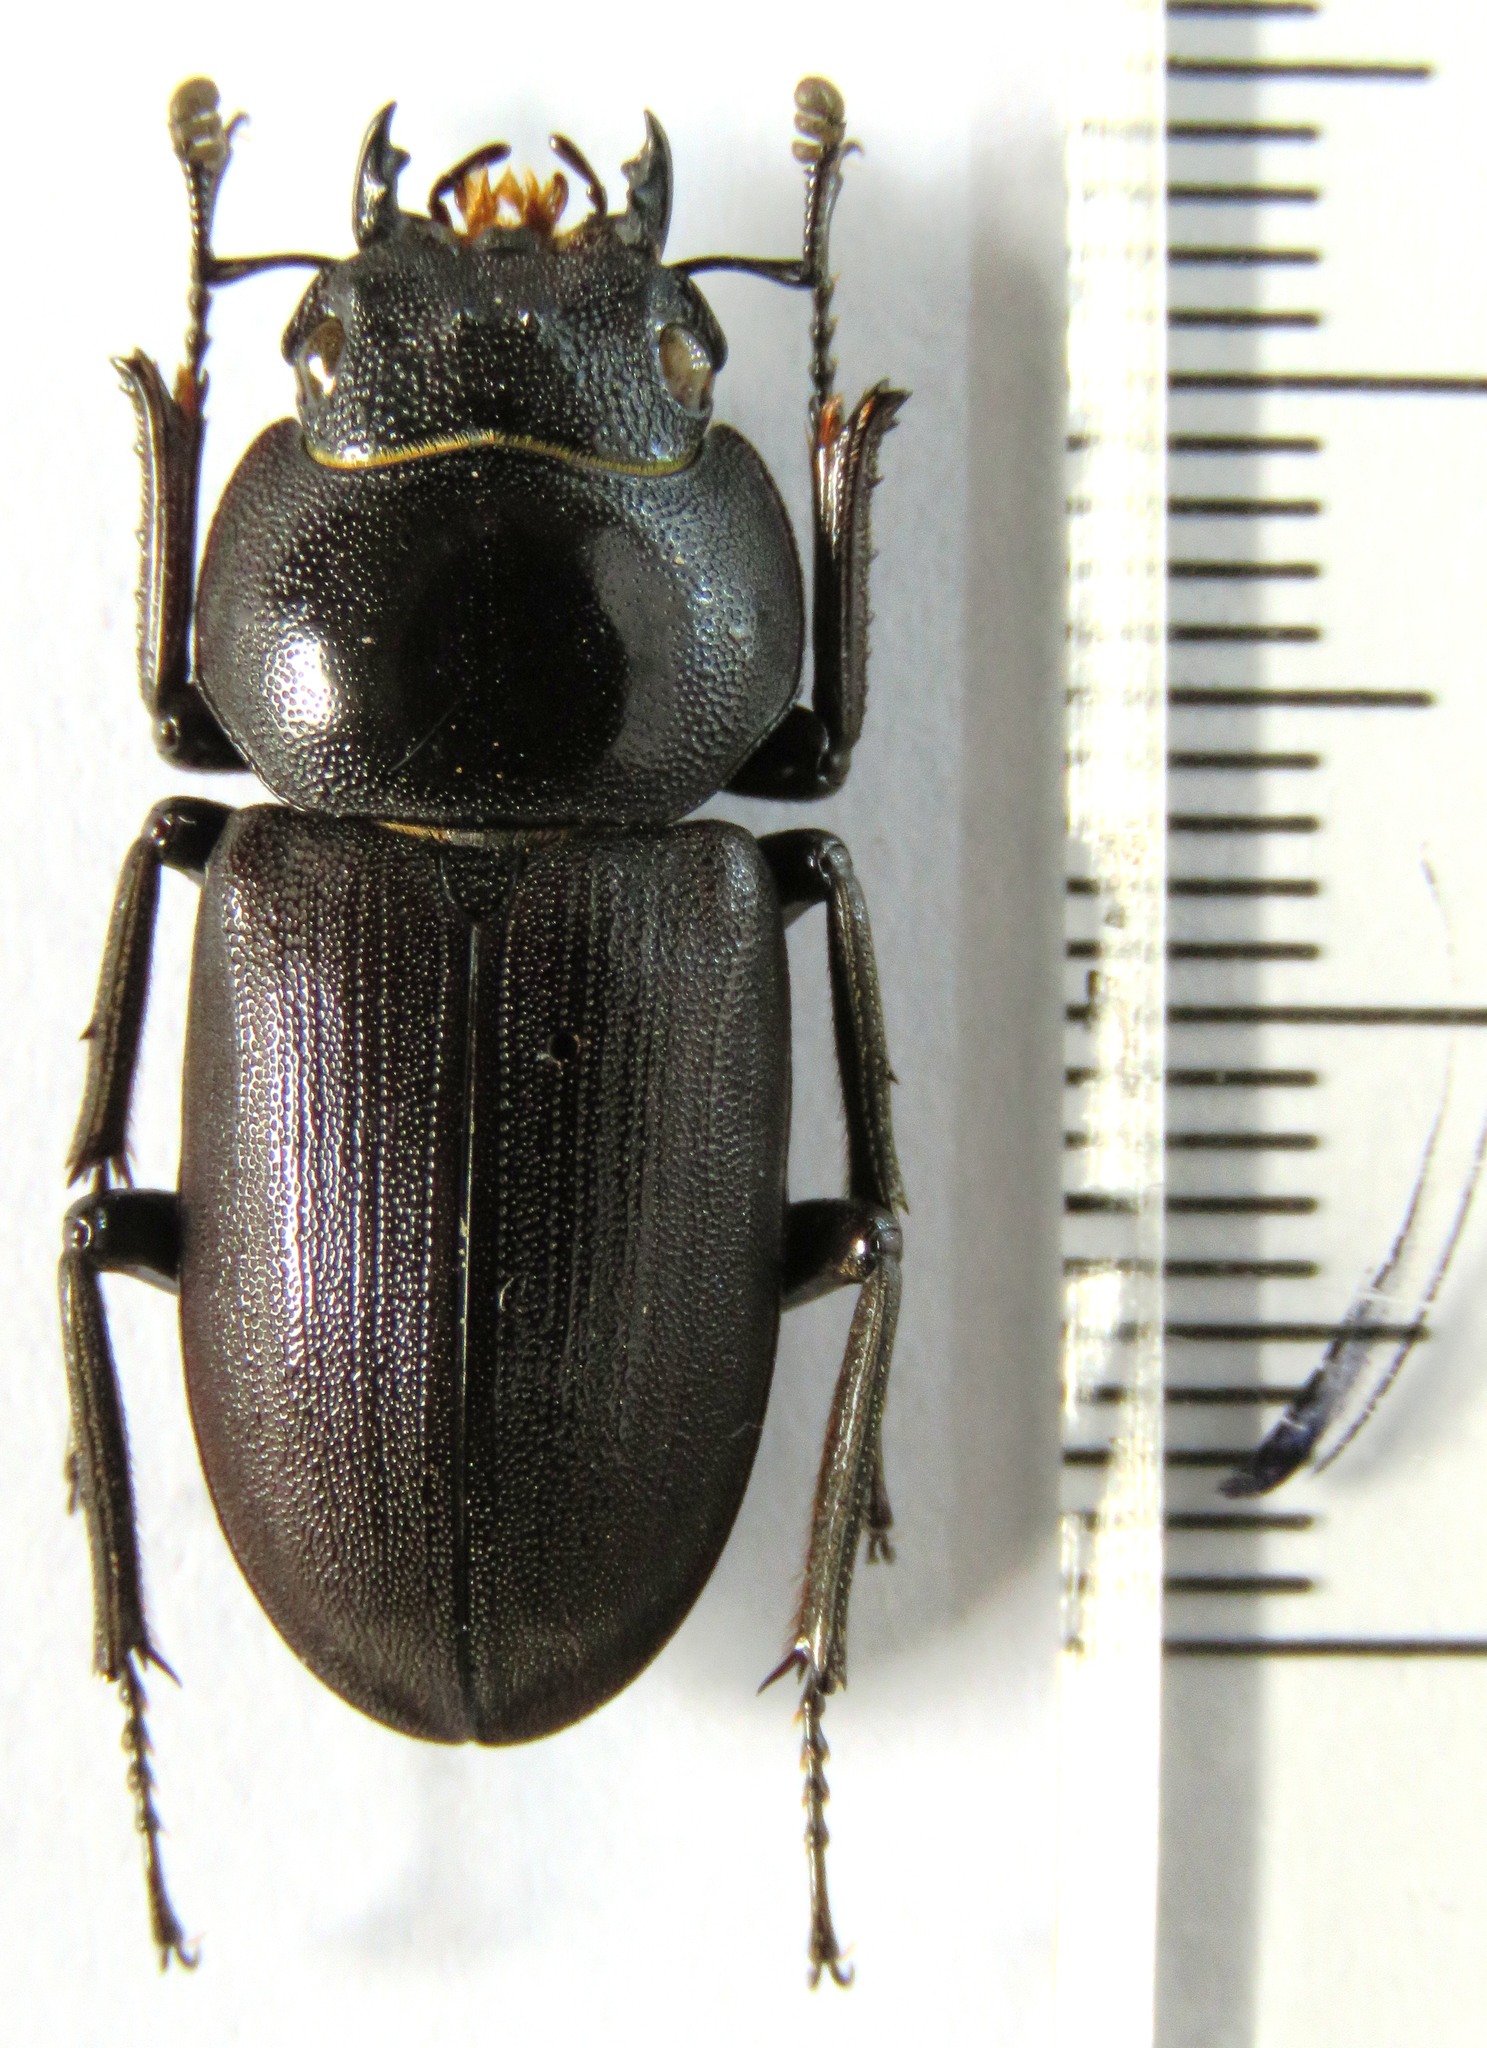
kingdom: Animalia
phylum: Arthropoda
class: Insecta
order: Coleoptera
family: Lucanidae
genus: Dorcus
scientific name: Dorcus amamianus
